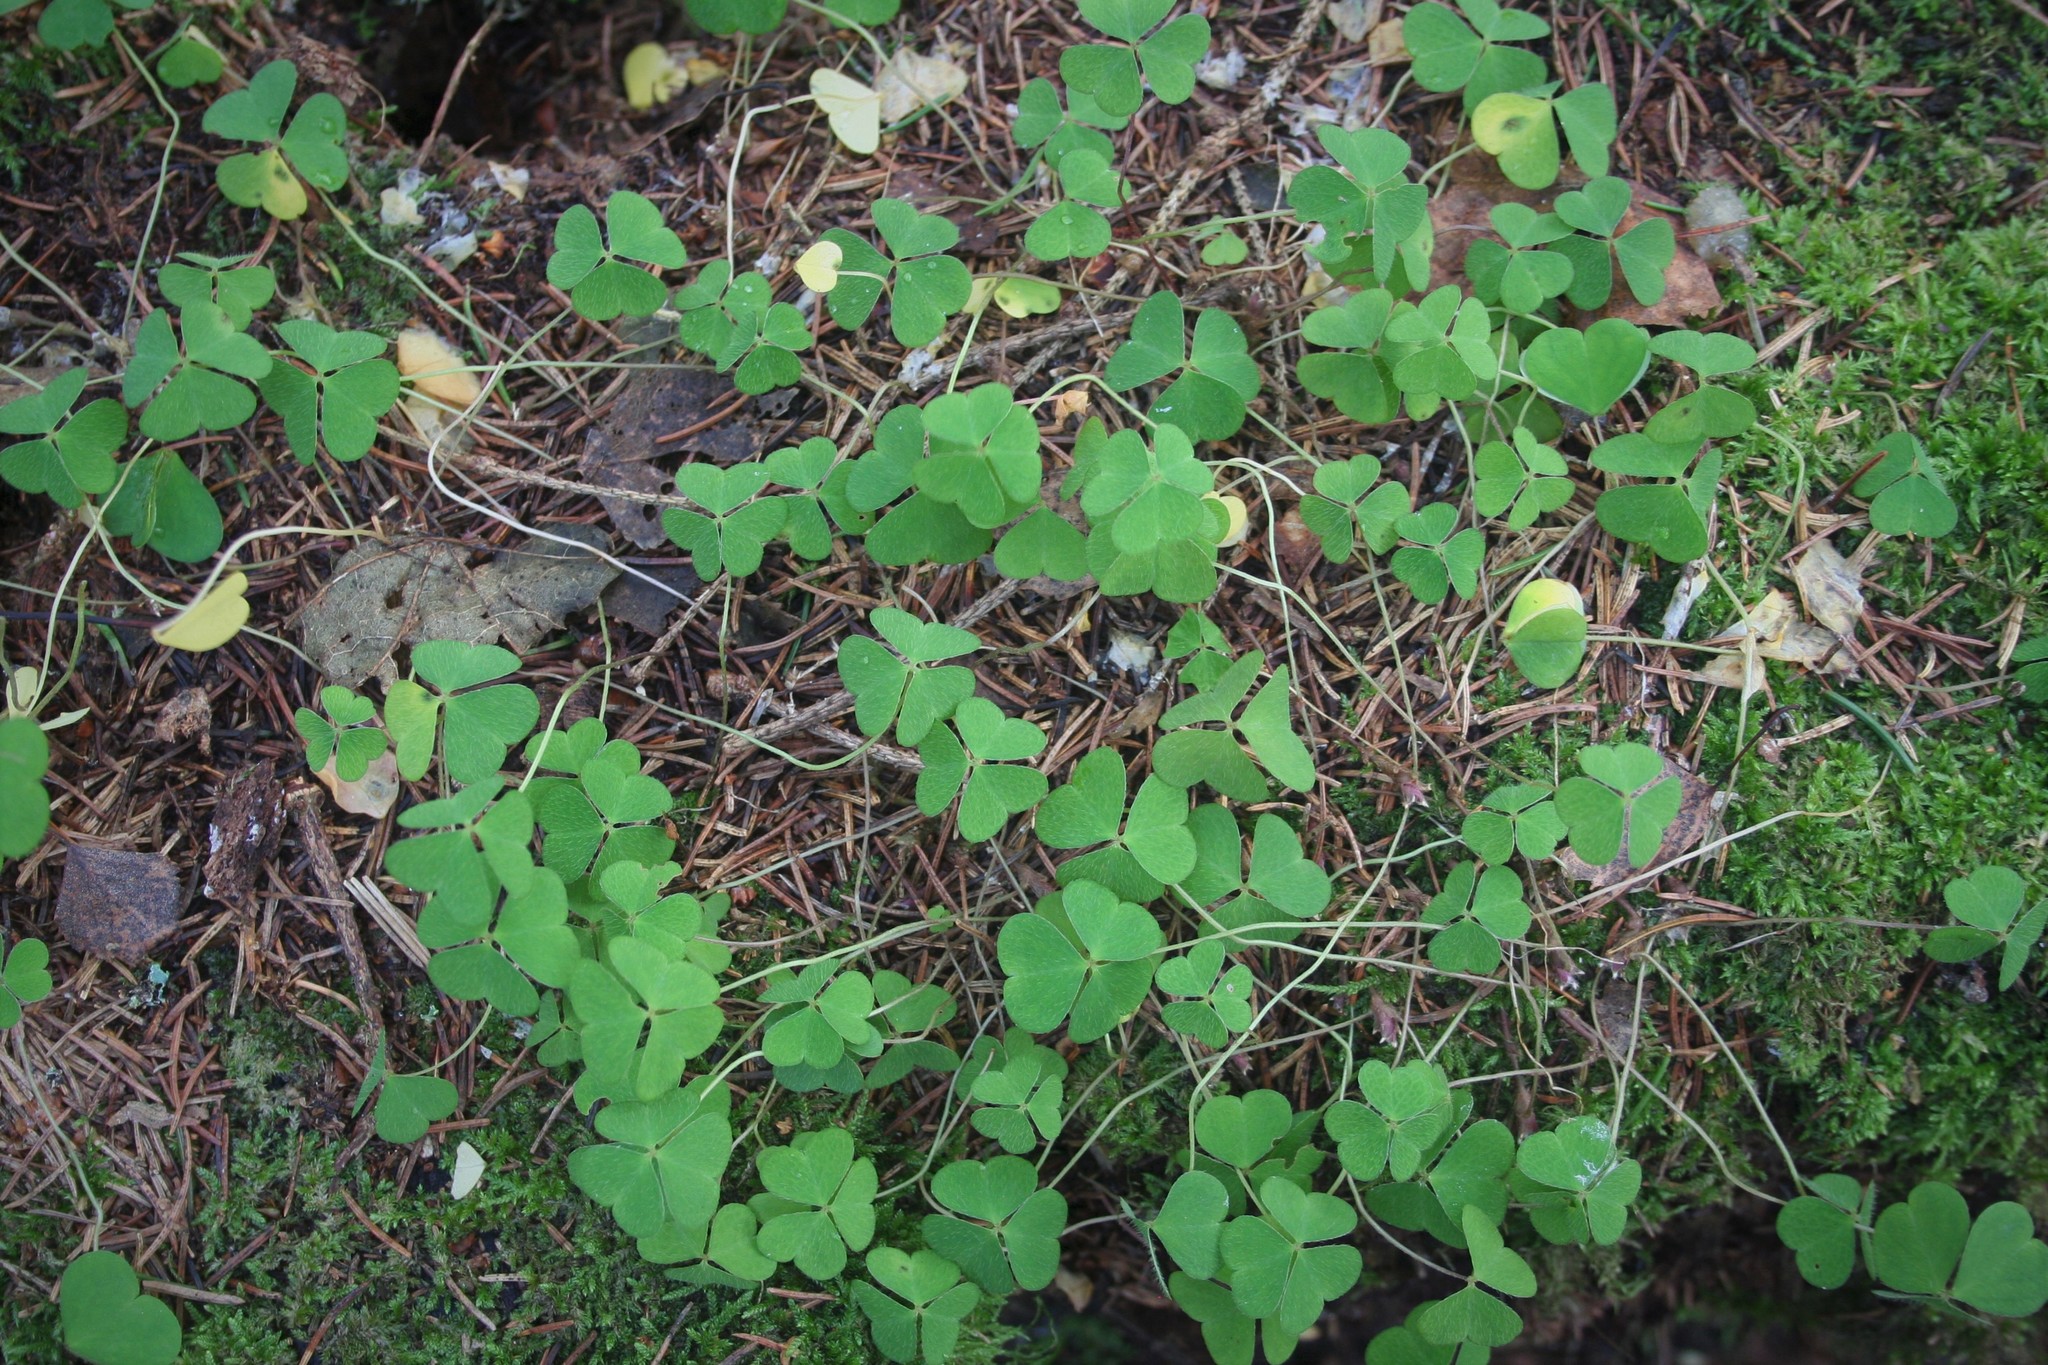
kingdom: Plantae
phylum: Tracheophyta
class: Magnoliopsida
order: Oxalidales
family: Oxalidaceae
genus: Oxalis
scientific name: Oxalis acetosella
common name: Wood-sorrel
